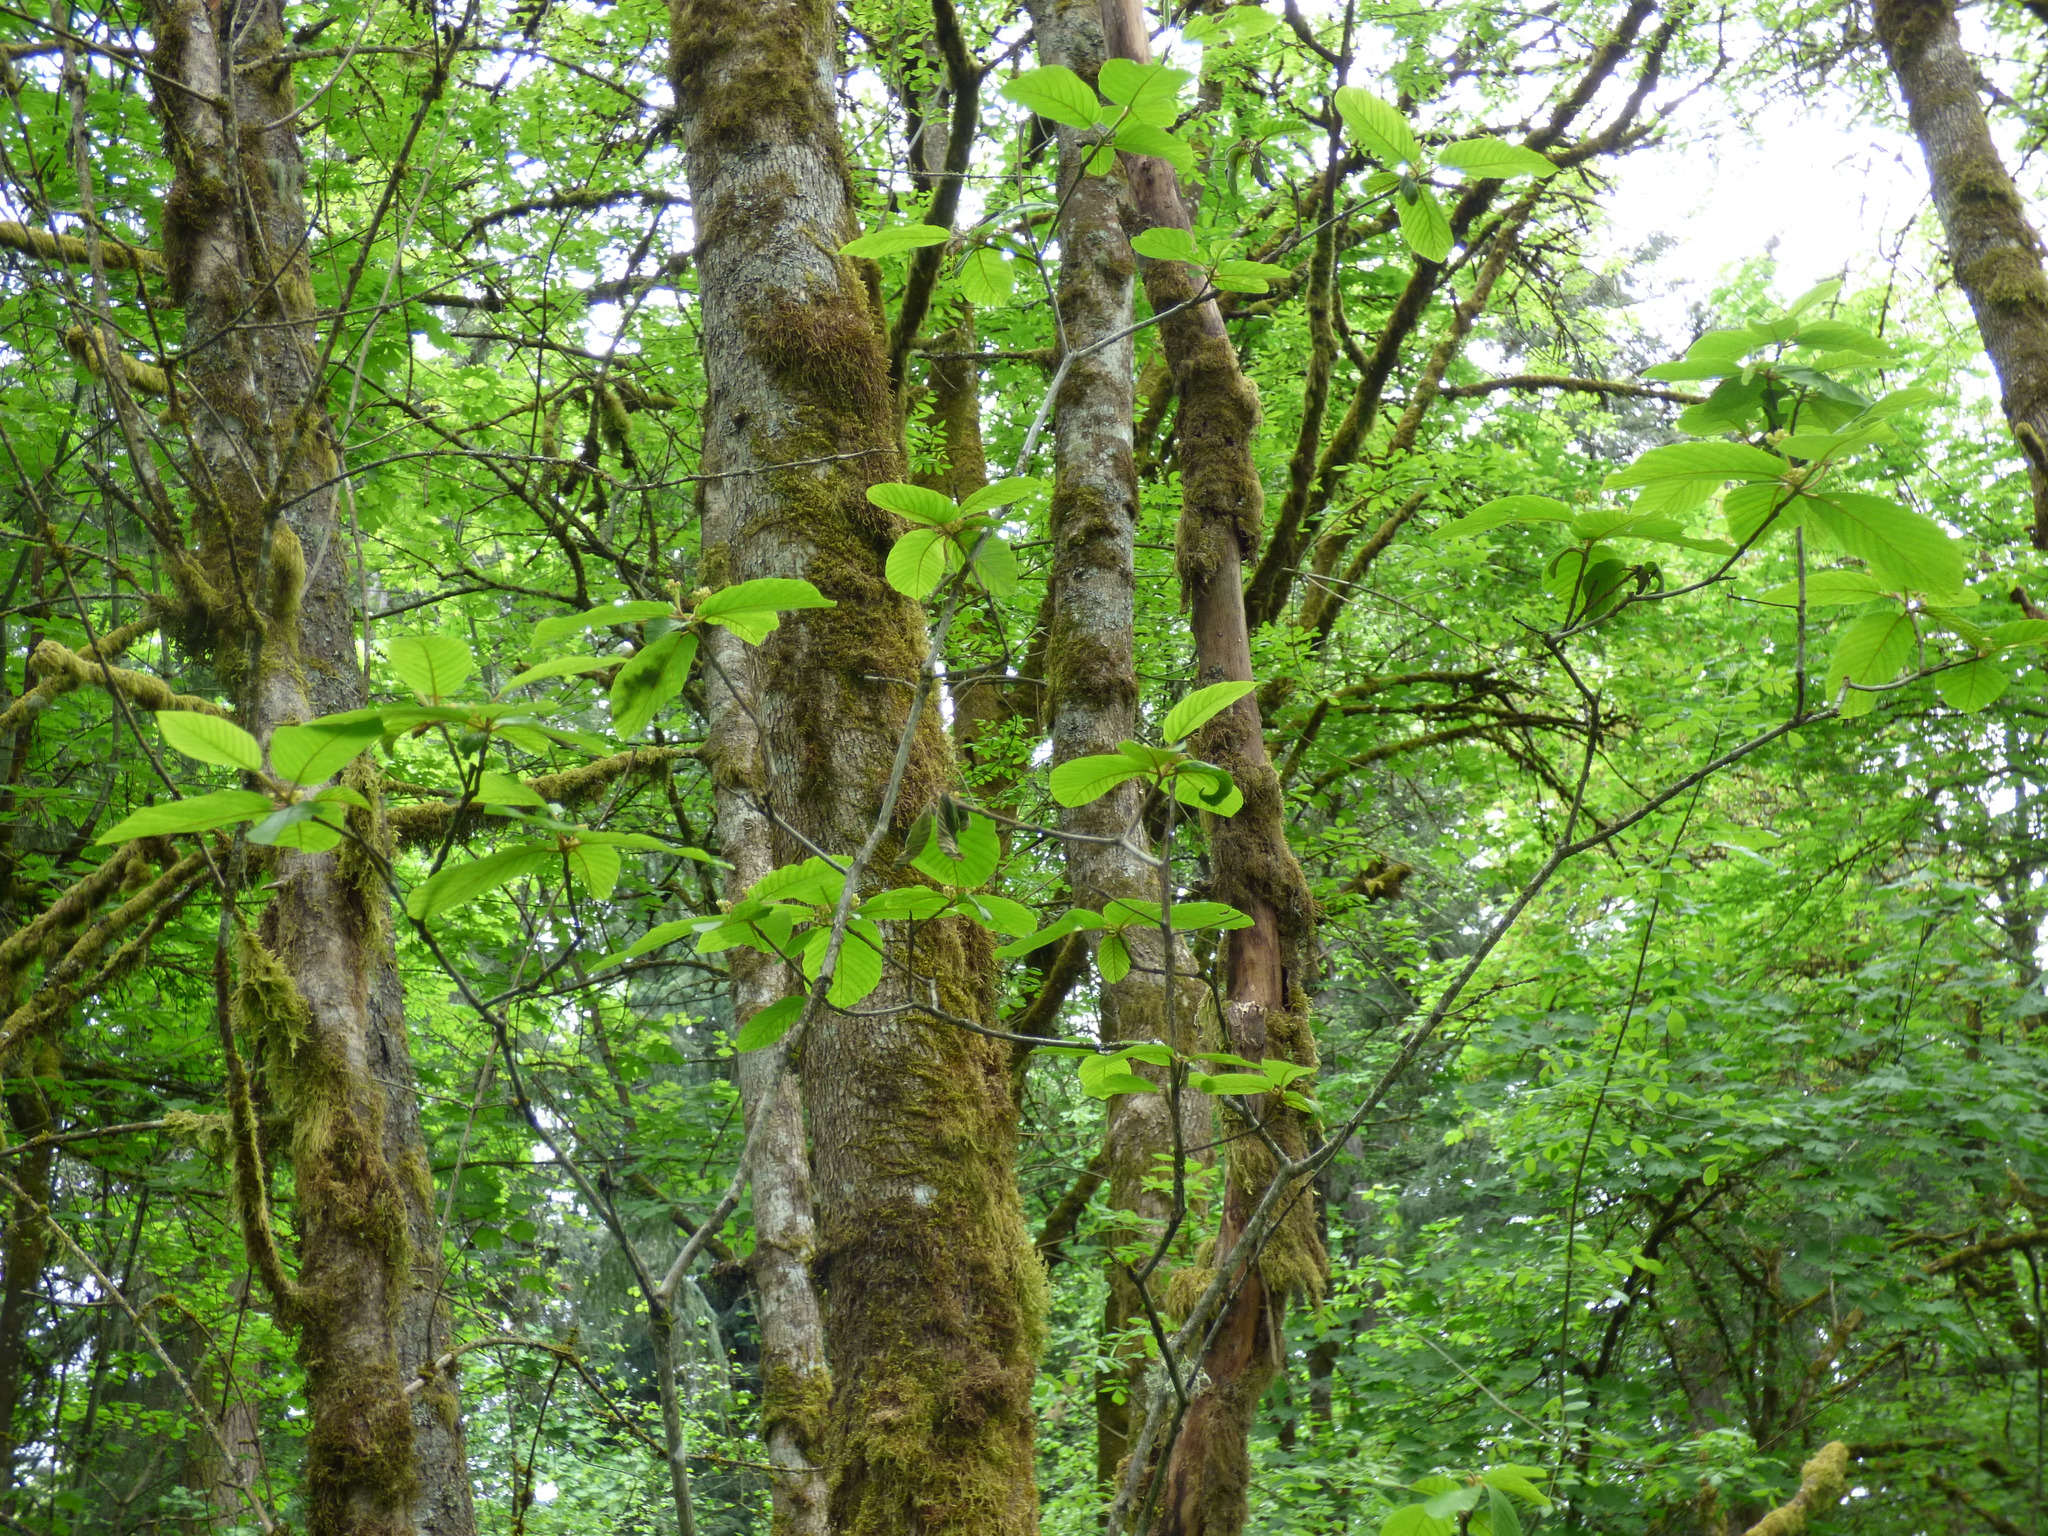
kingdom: Plantae
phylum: Tracheophyta
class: Magnoliopsida
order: Rosales
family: Rhamnaceae
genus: Frangula
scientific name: Frangula purshiana
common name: Cascara buckthorn
